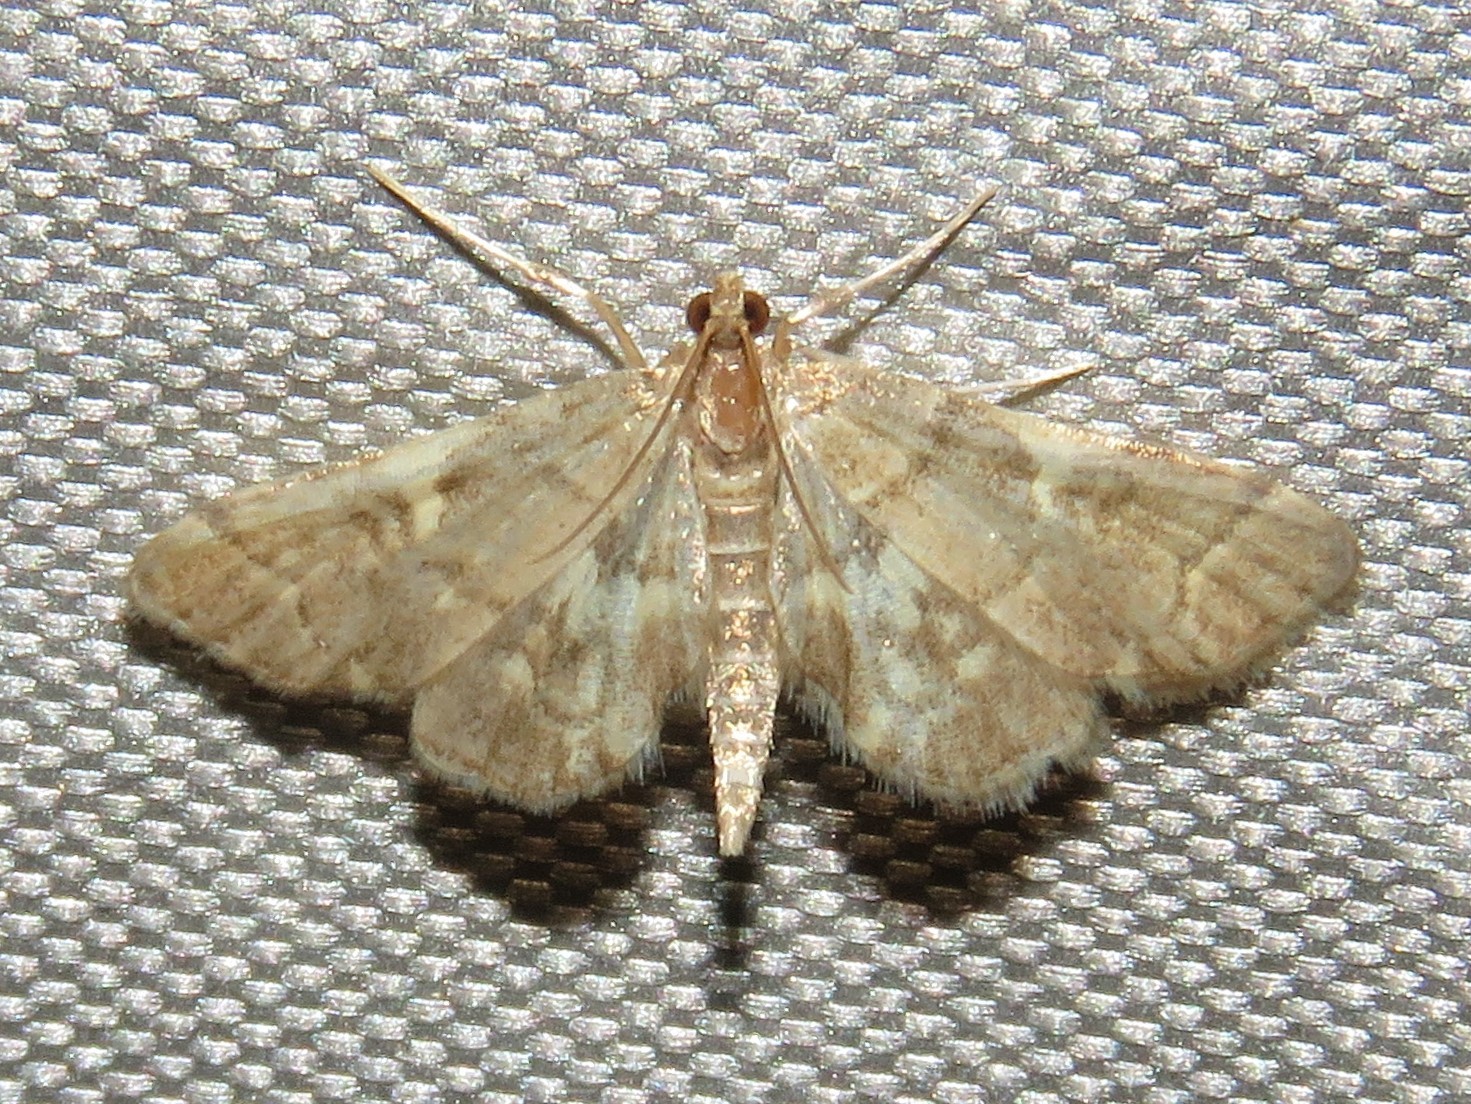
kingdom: Animalia
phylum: Arthropoda
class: Insecta
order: Lepidoptera
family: Crambidae
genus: Anageshna
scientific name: Anageshna primordialis
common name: Yellow-spotted webworm moth
